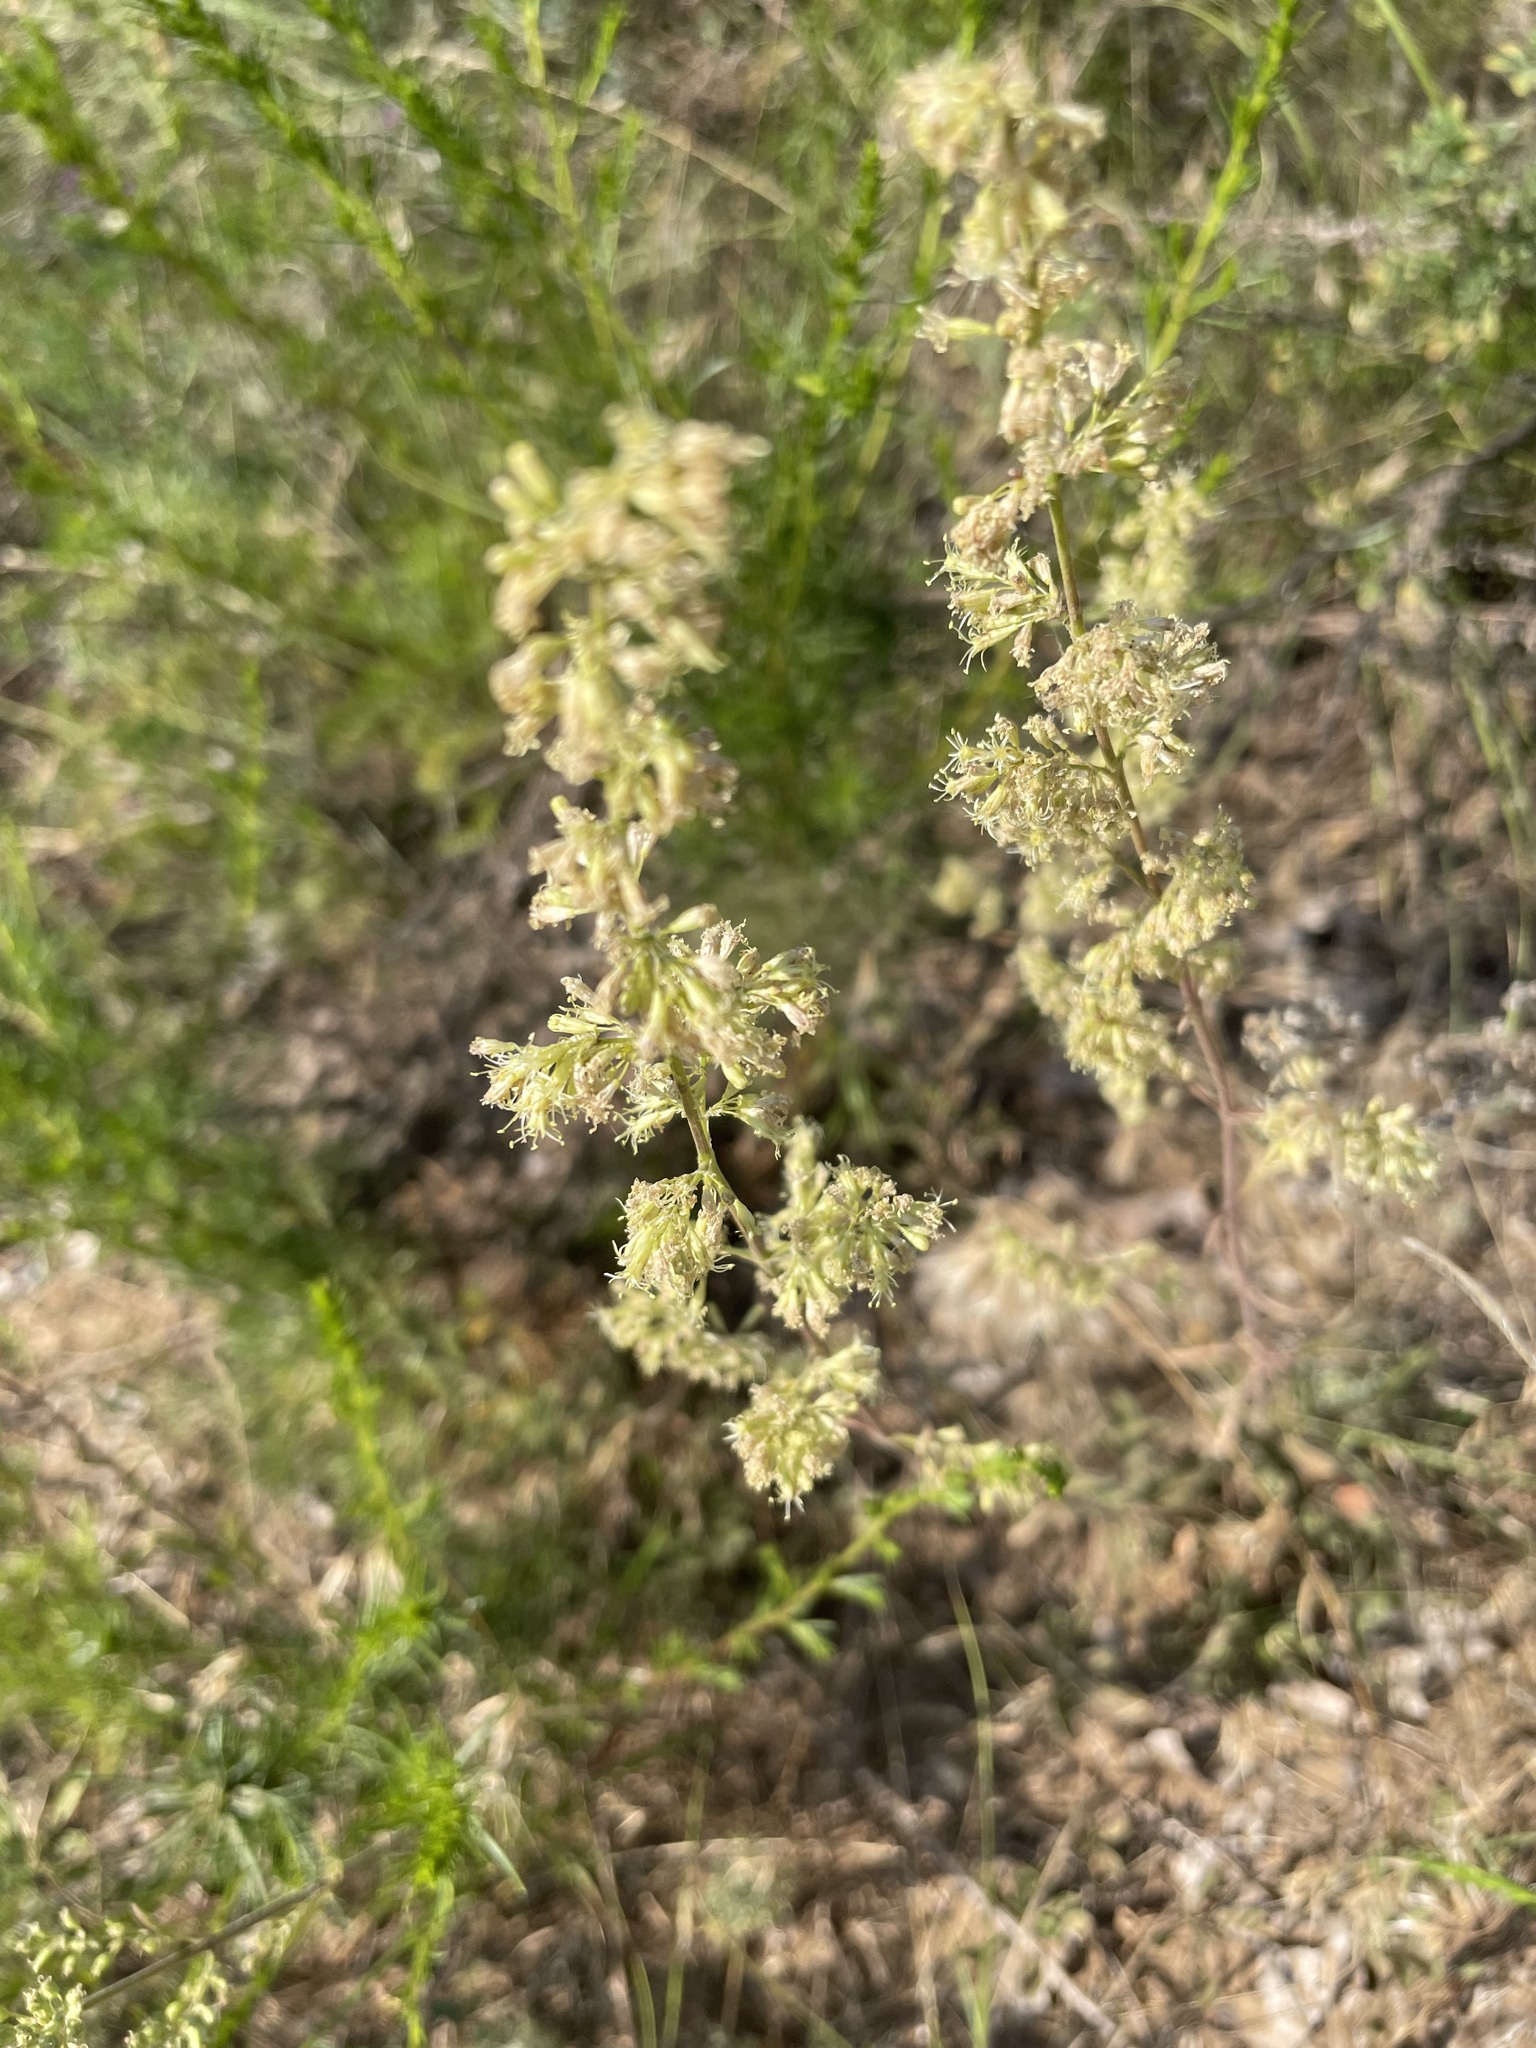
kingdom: Plantae
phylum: Tracheophyta
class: Magnoliopsida
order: Caryophyllales
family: Caryophyllaceae
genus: Silene
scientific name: Silene borysthenica
